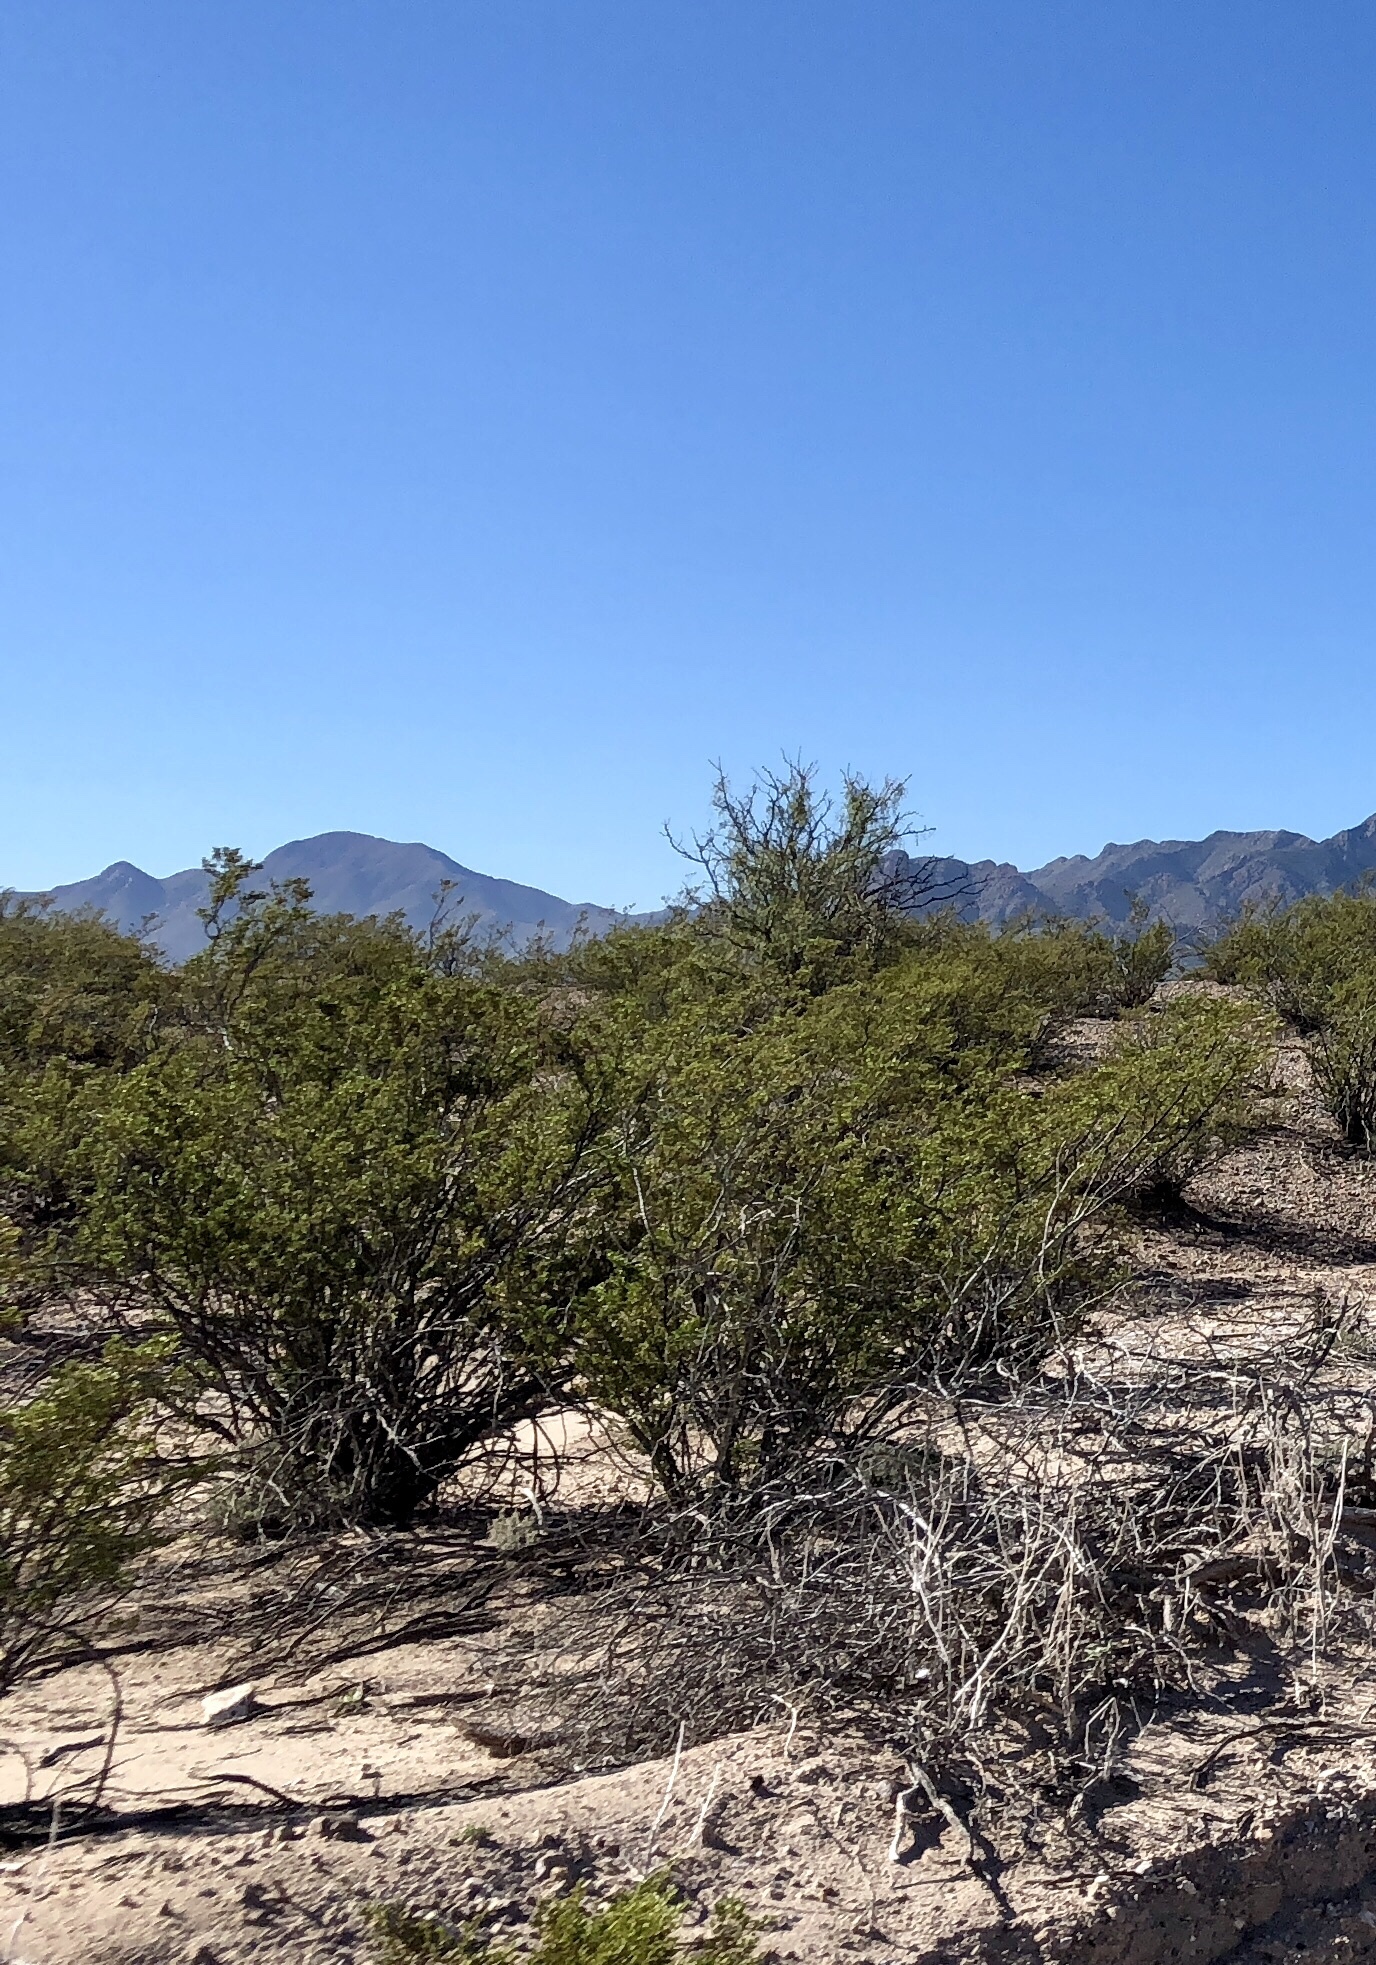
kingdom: Plantae
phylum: Tracheophyta
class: Magnoliopsida
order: Zygophyllales
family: Zygophyllaceae
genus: Larrea
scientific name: Larrea tridentata
